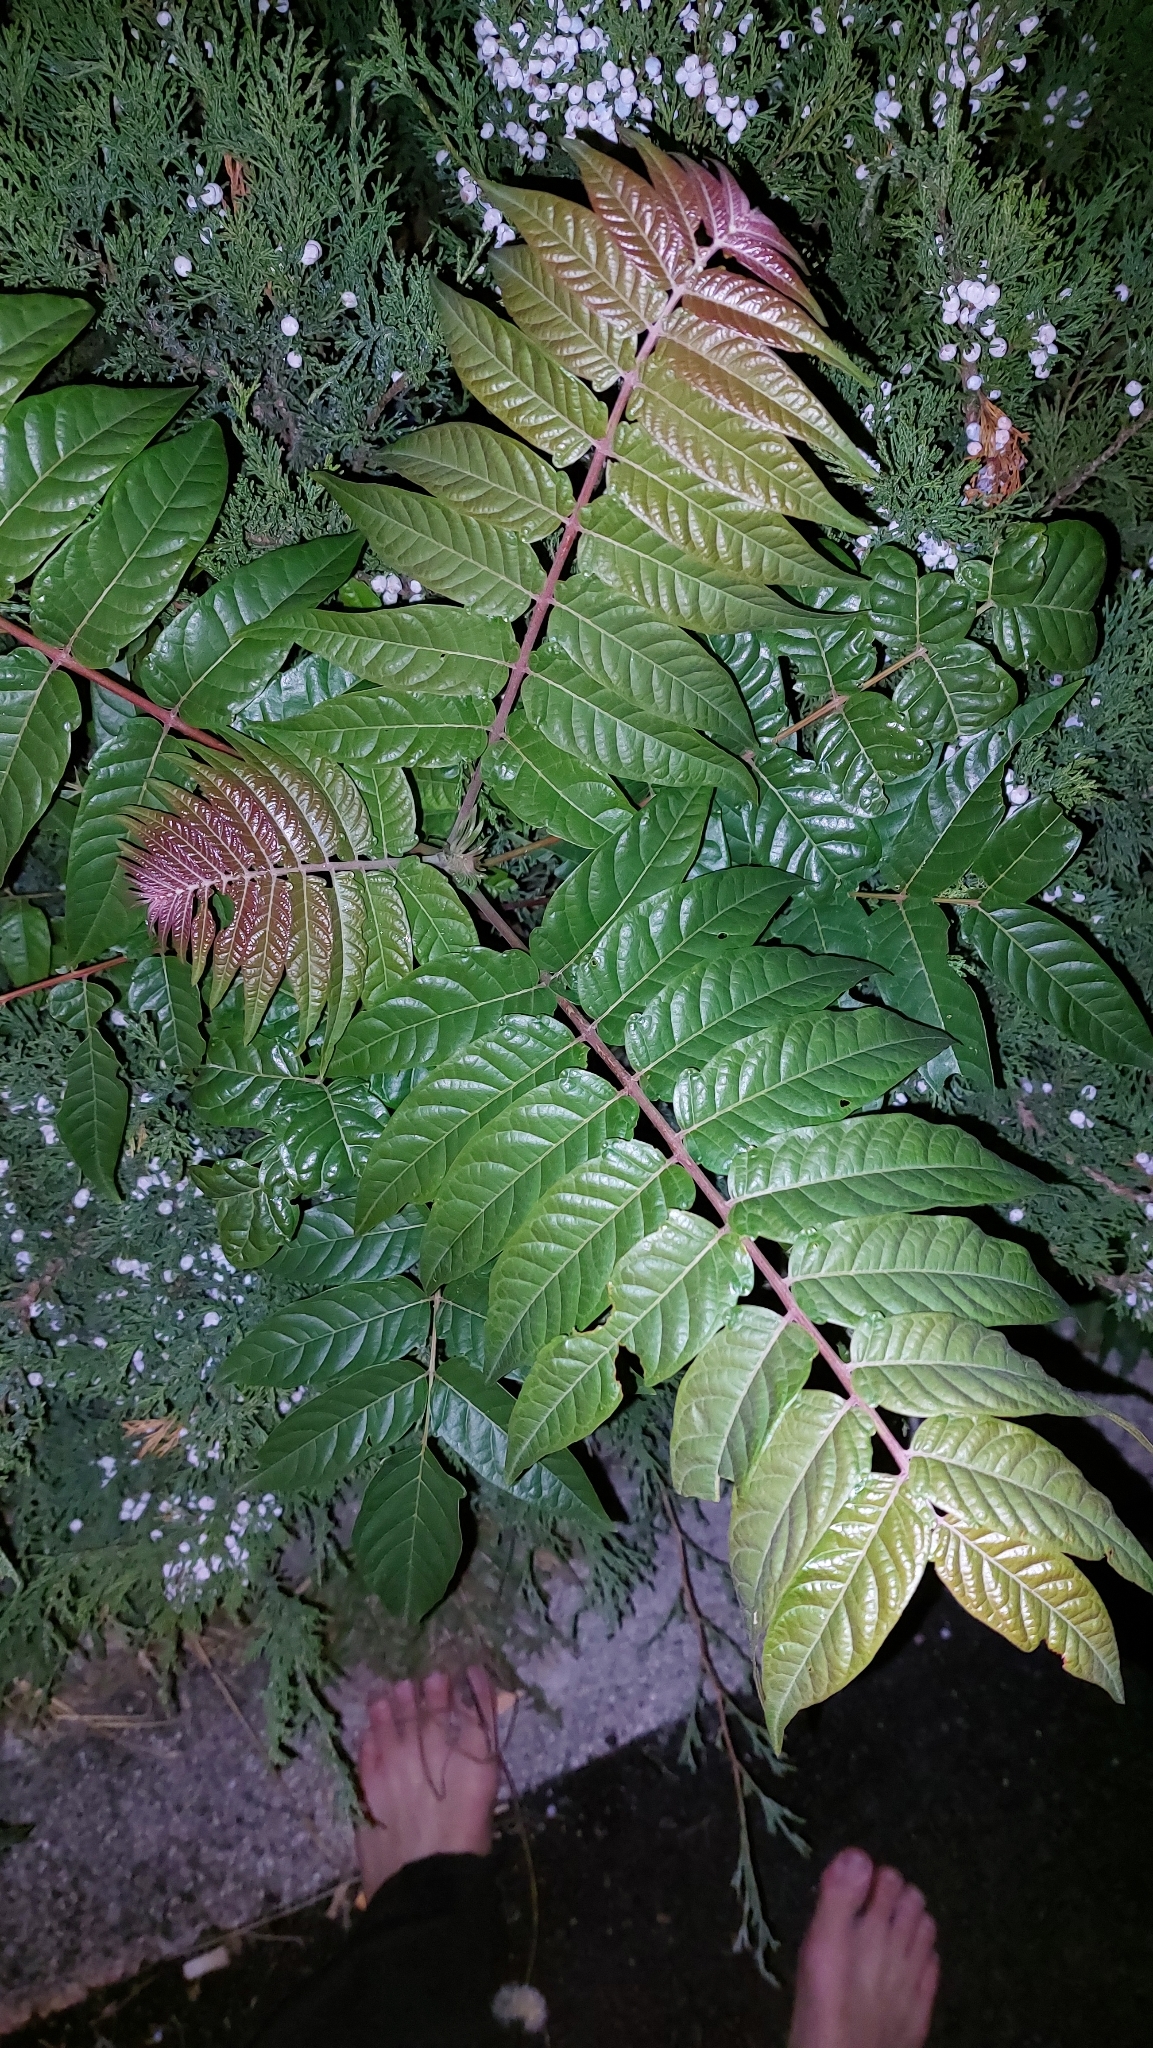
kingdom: Plantae
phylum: Tracheophyta
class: Magnoliopsida
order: Sapindales
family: Simaroubaceae
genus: Ailanthus
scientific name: Ailanthus altissima
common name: Tree-of-heaven
